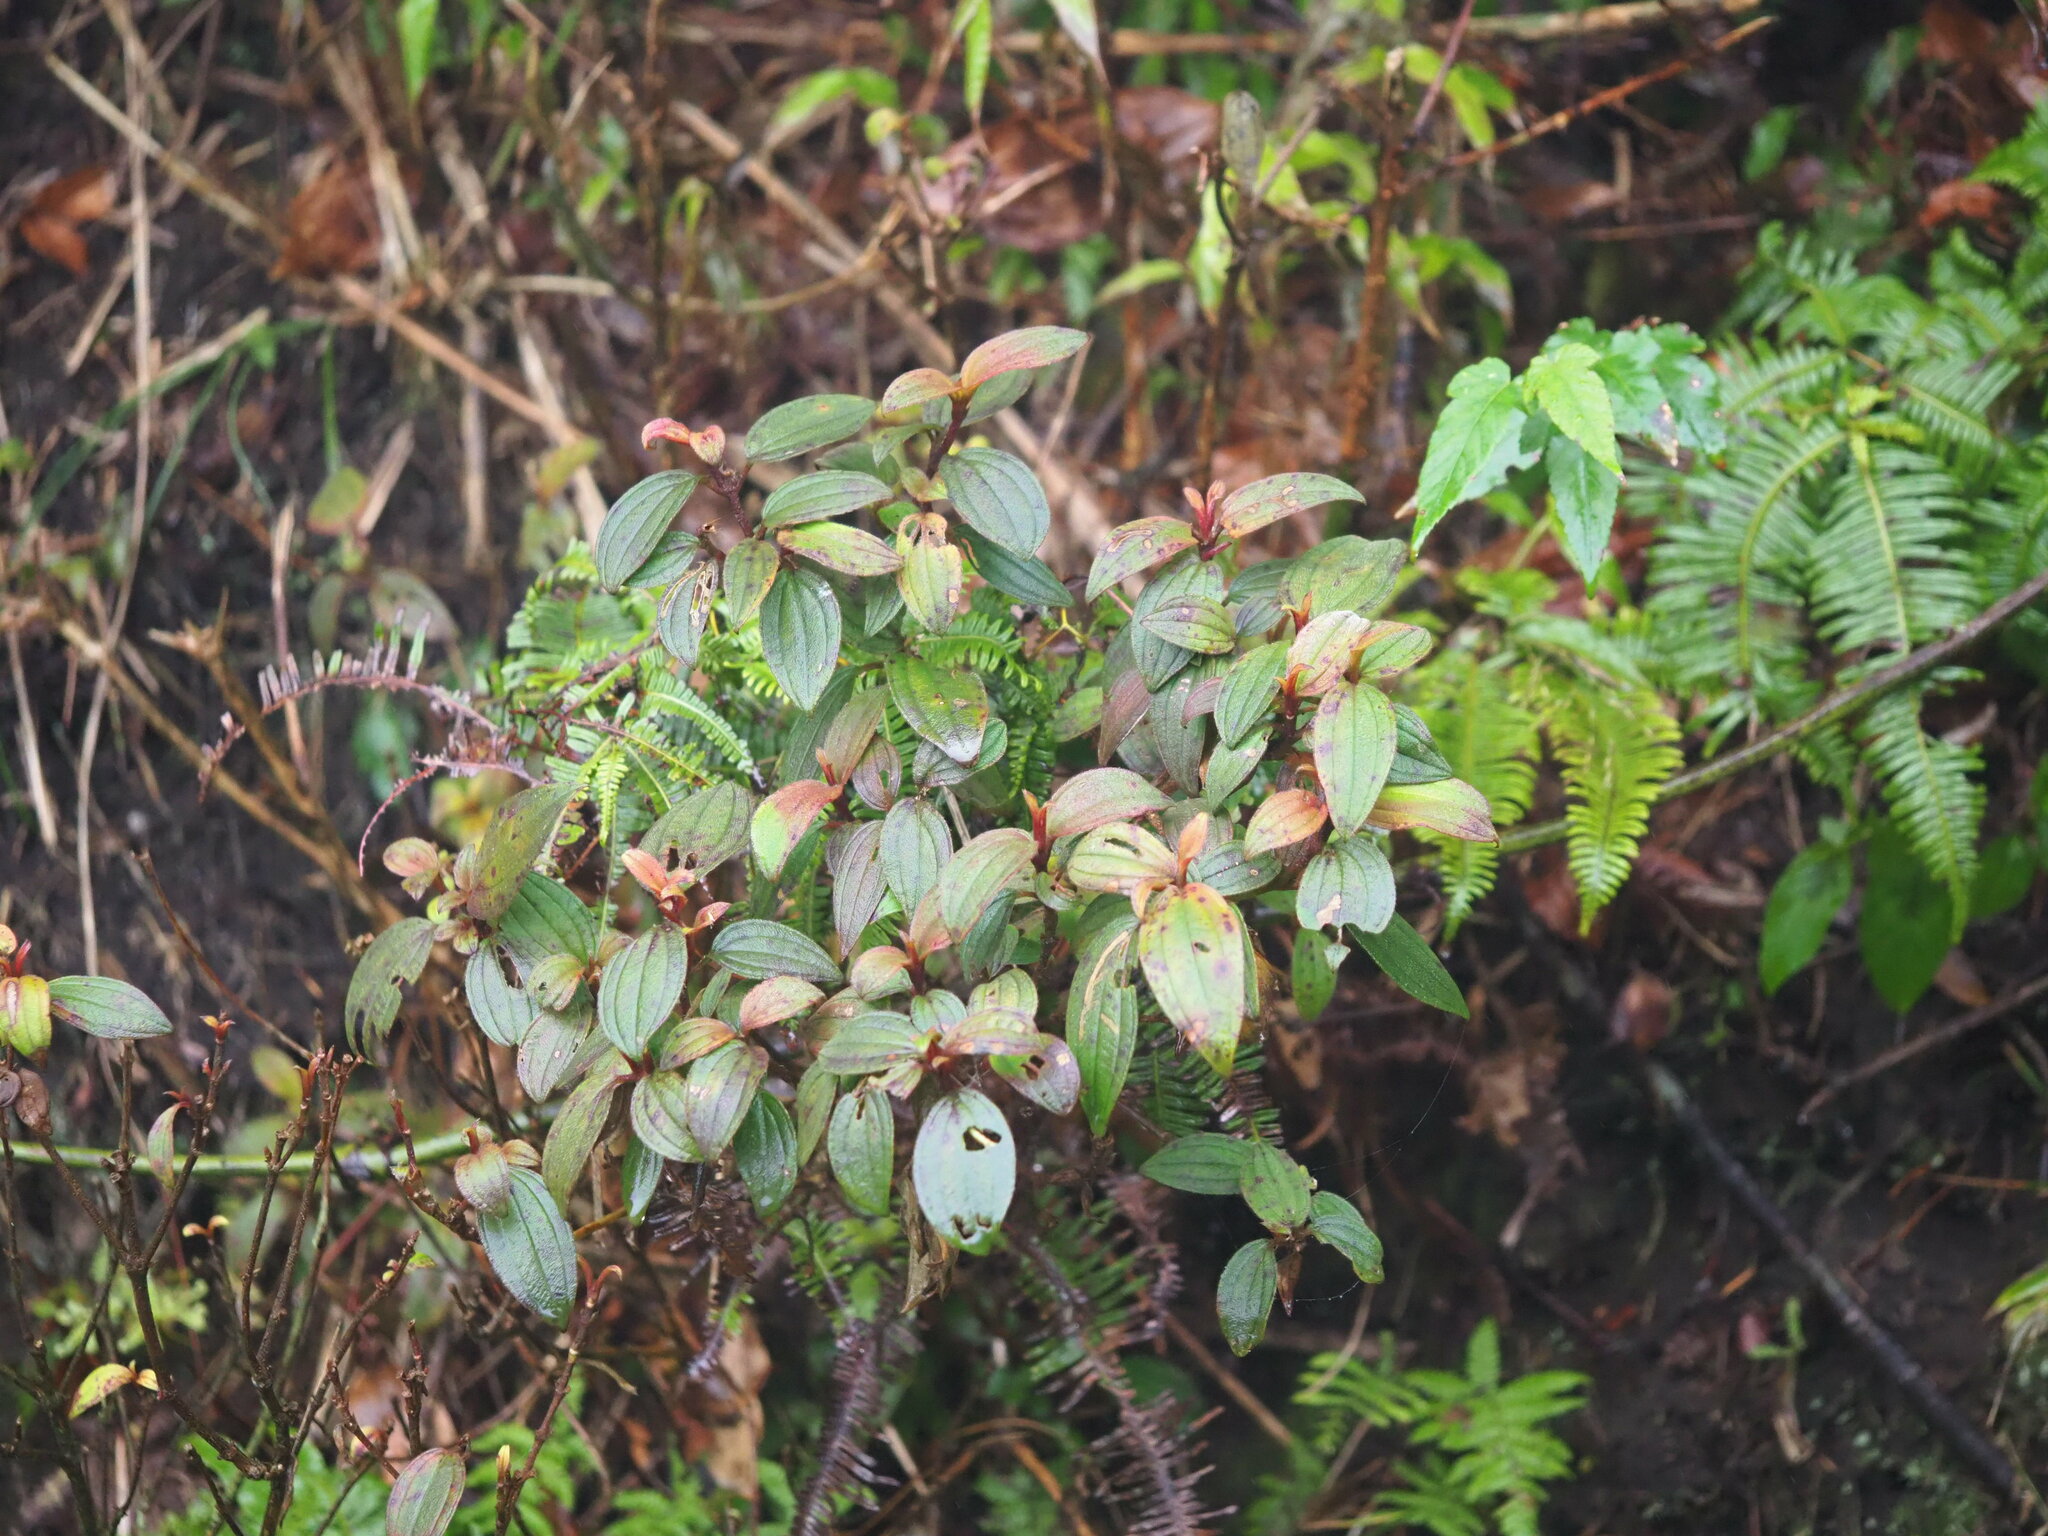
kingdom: Plantae
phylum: Tracheophyta
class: Magnoliopsida
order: Myrtales
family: Melastomataceae
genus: Melastoma
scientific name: Melastoma malabathricum
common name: Indian-rhododendron
